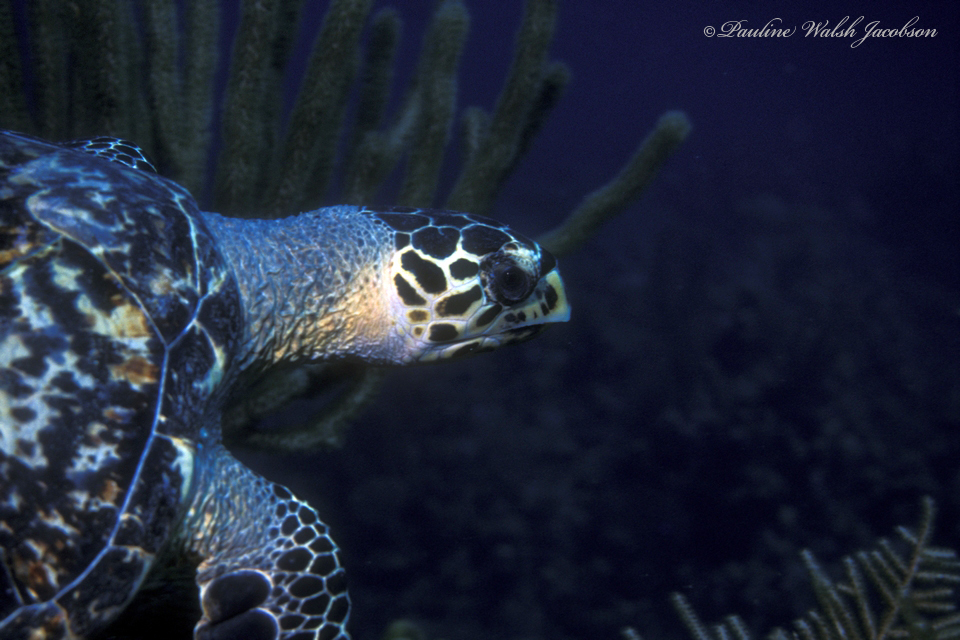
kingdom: Animalia
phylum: Chordata
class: Testudines
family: Cheloniidae
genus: Eretmochelys
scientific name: Eretmochelys imbricata
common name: Hawksbill turtle
